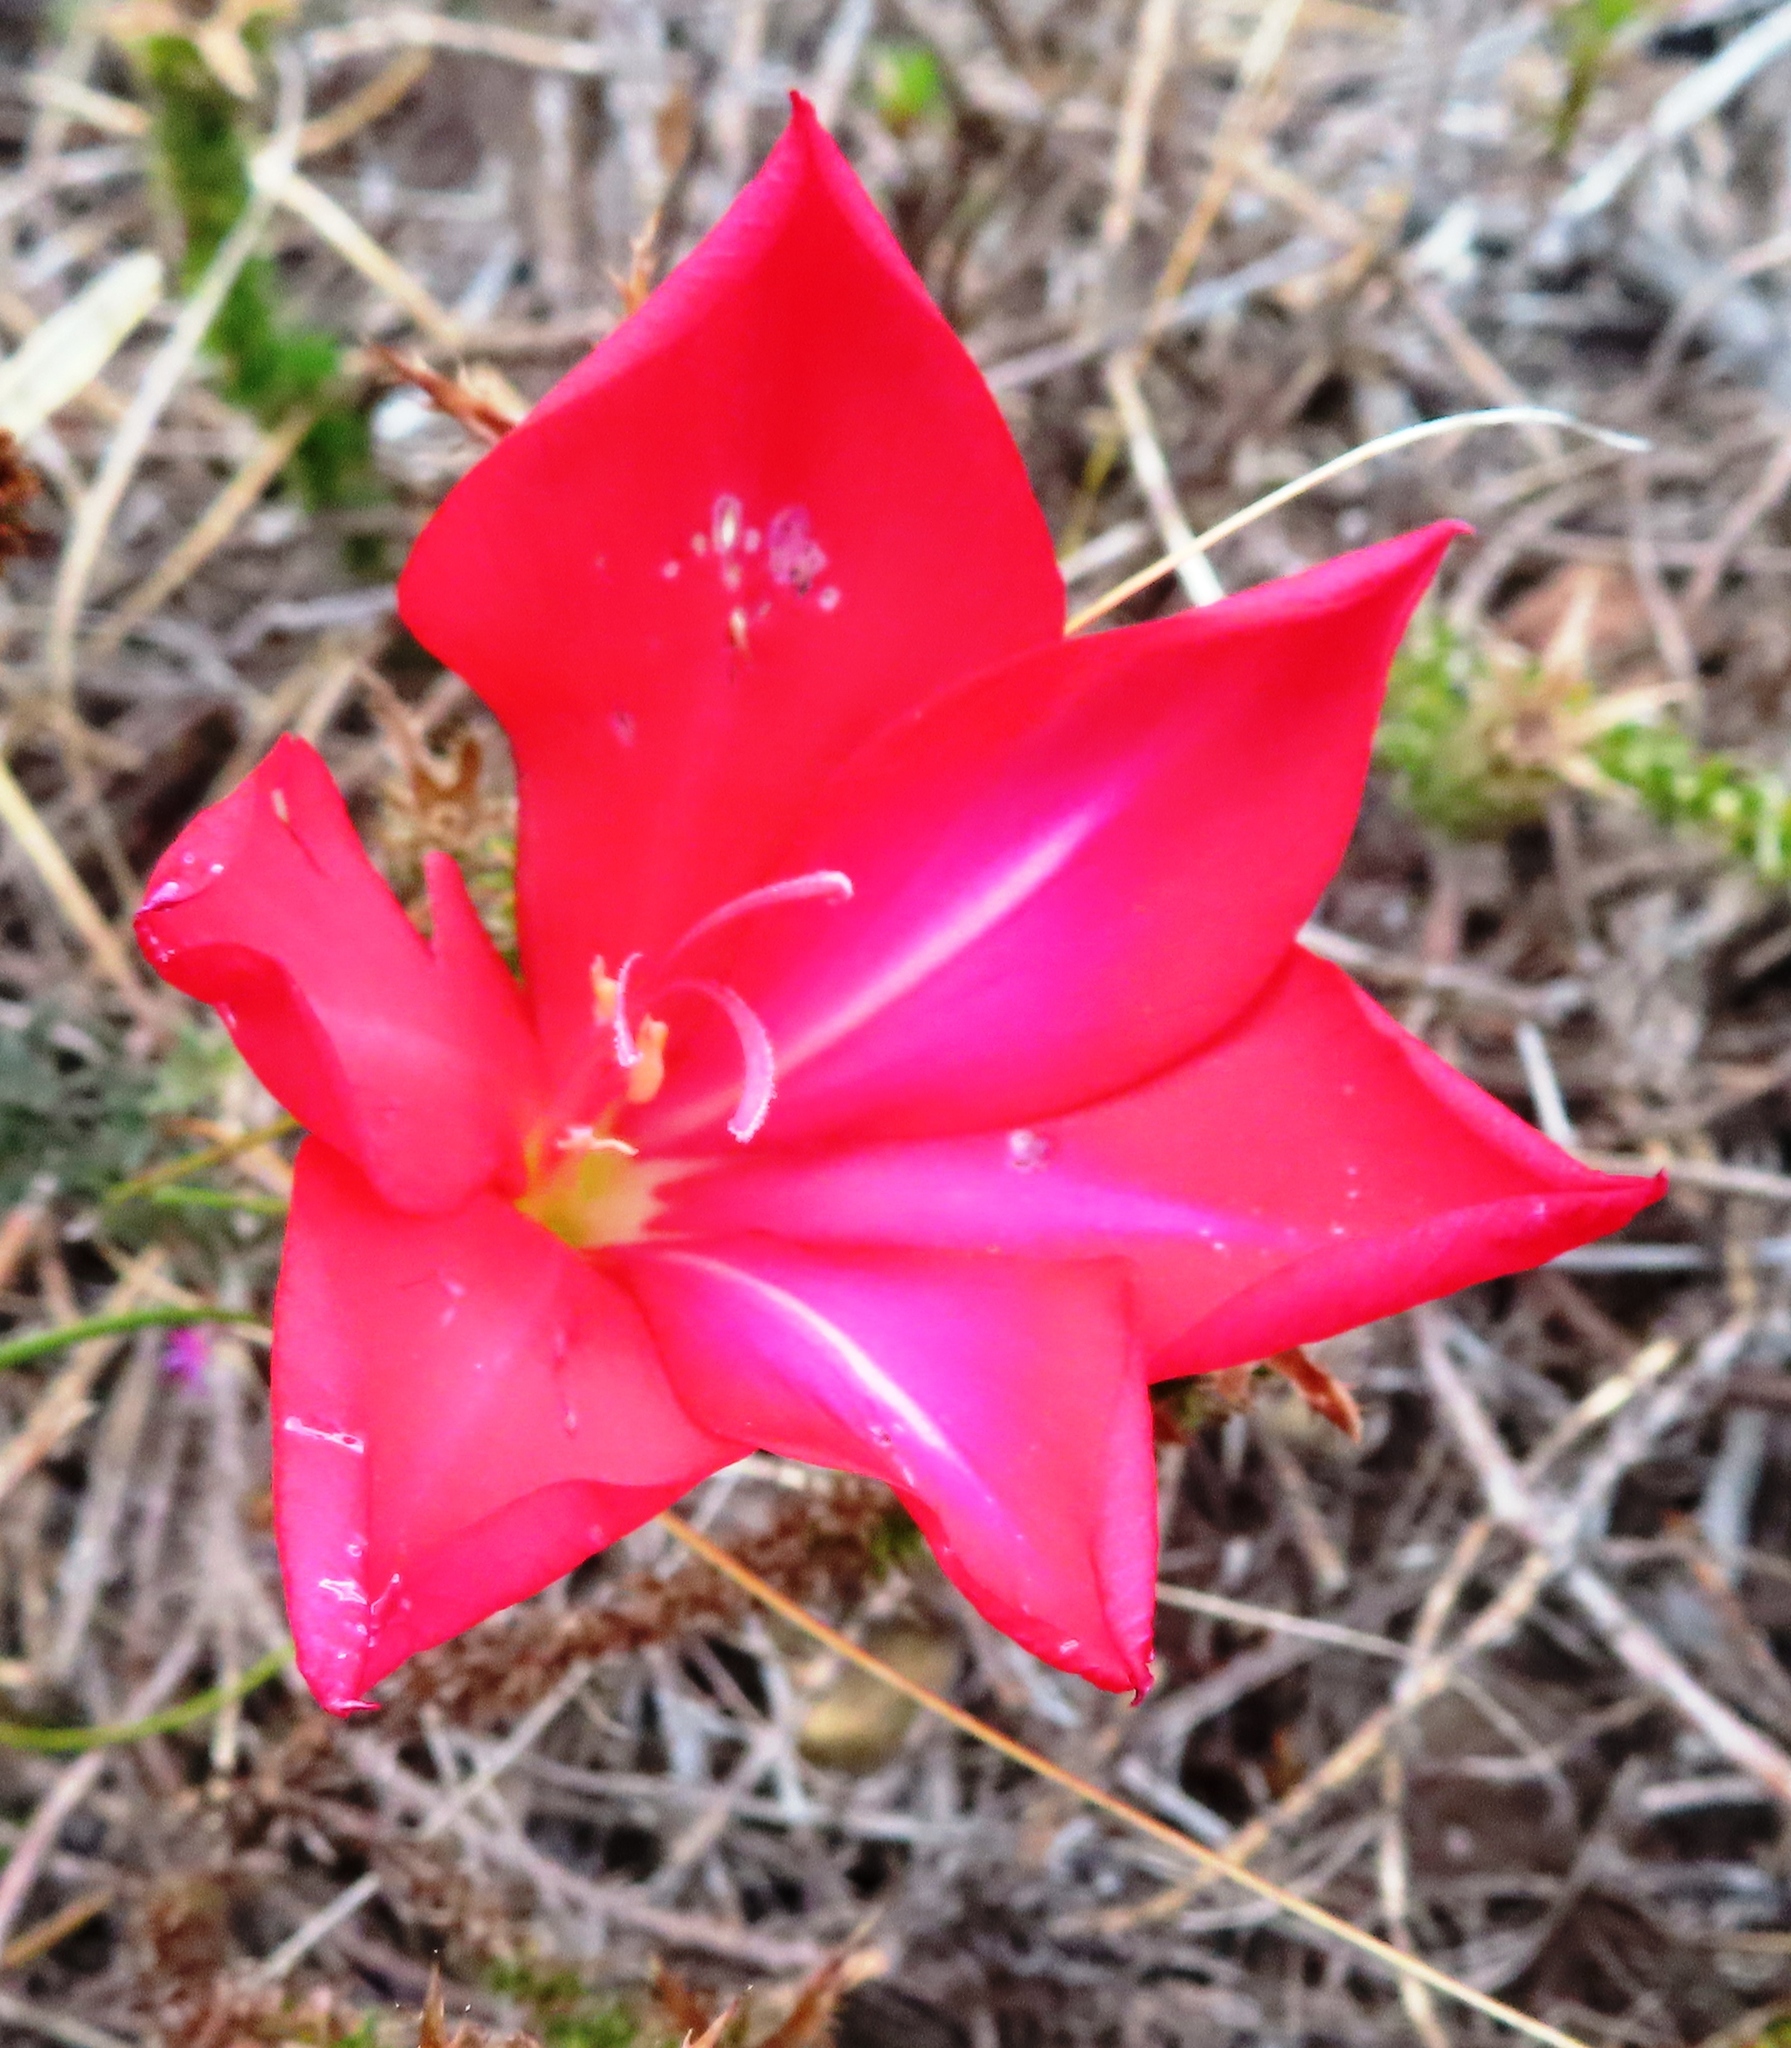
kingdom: Plantae
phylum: Tracheophyta
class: Liliopsida
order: Asparagales
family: Iridaceae
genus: Gladiolus
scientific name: Gladiolus carmineus
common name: Hermanus gladiolus
